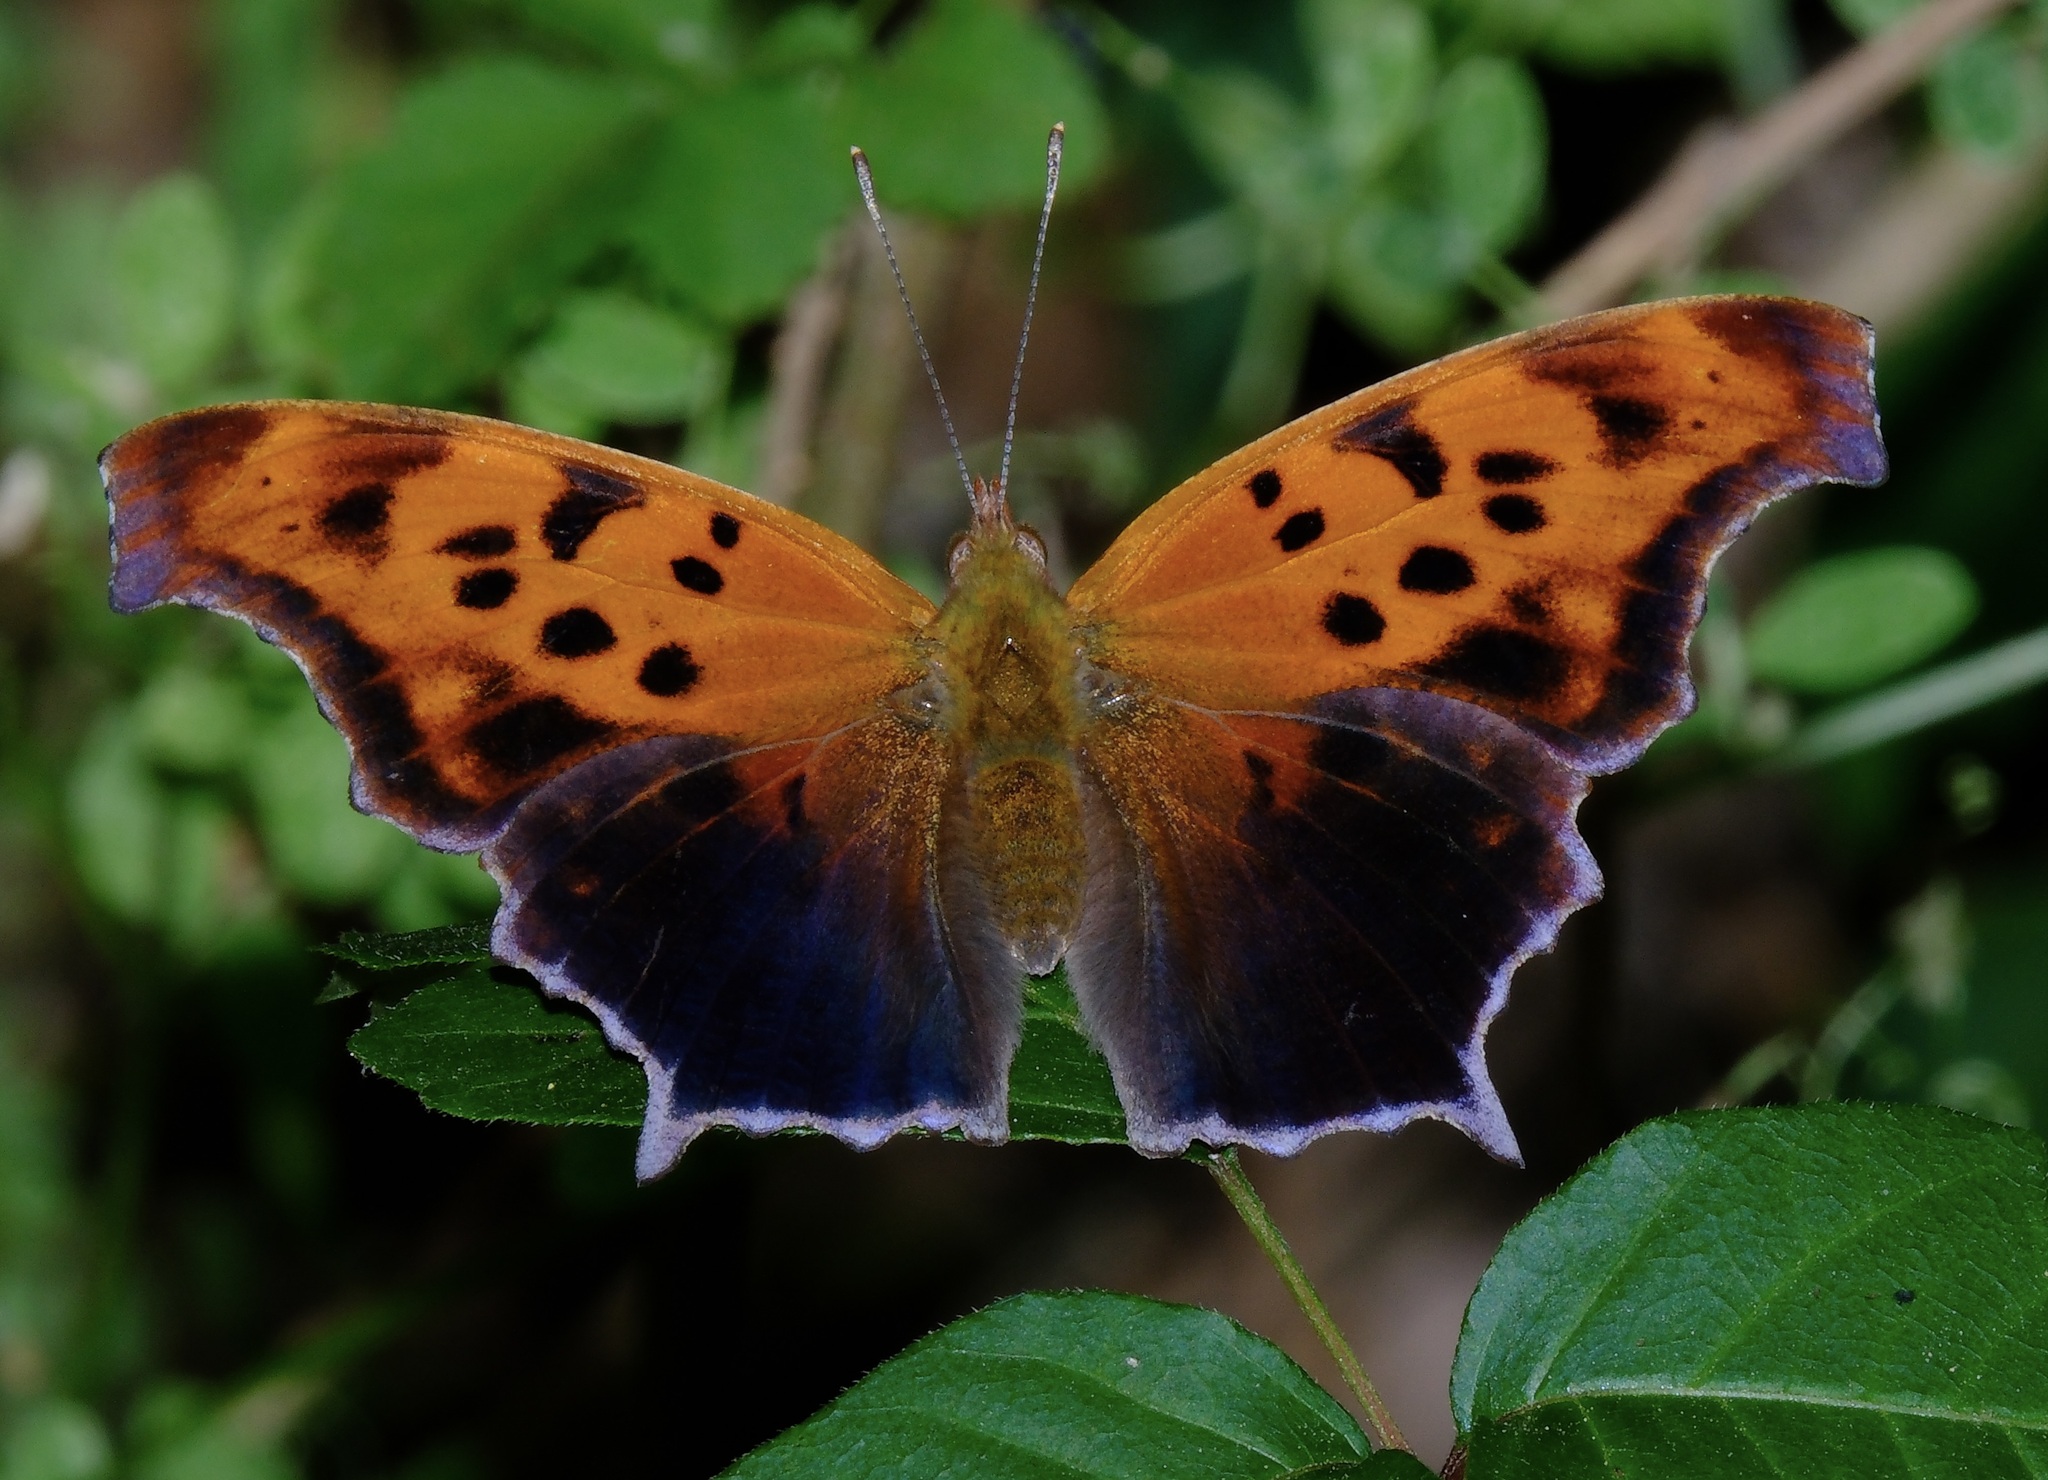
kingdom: Animalia
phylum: Arthropoda
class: Insecta
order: Lepidoptera
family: Nymphalidae
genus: Polygonia
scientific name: Polygonia interrogationis
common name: Question mark
